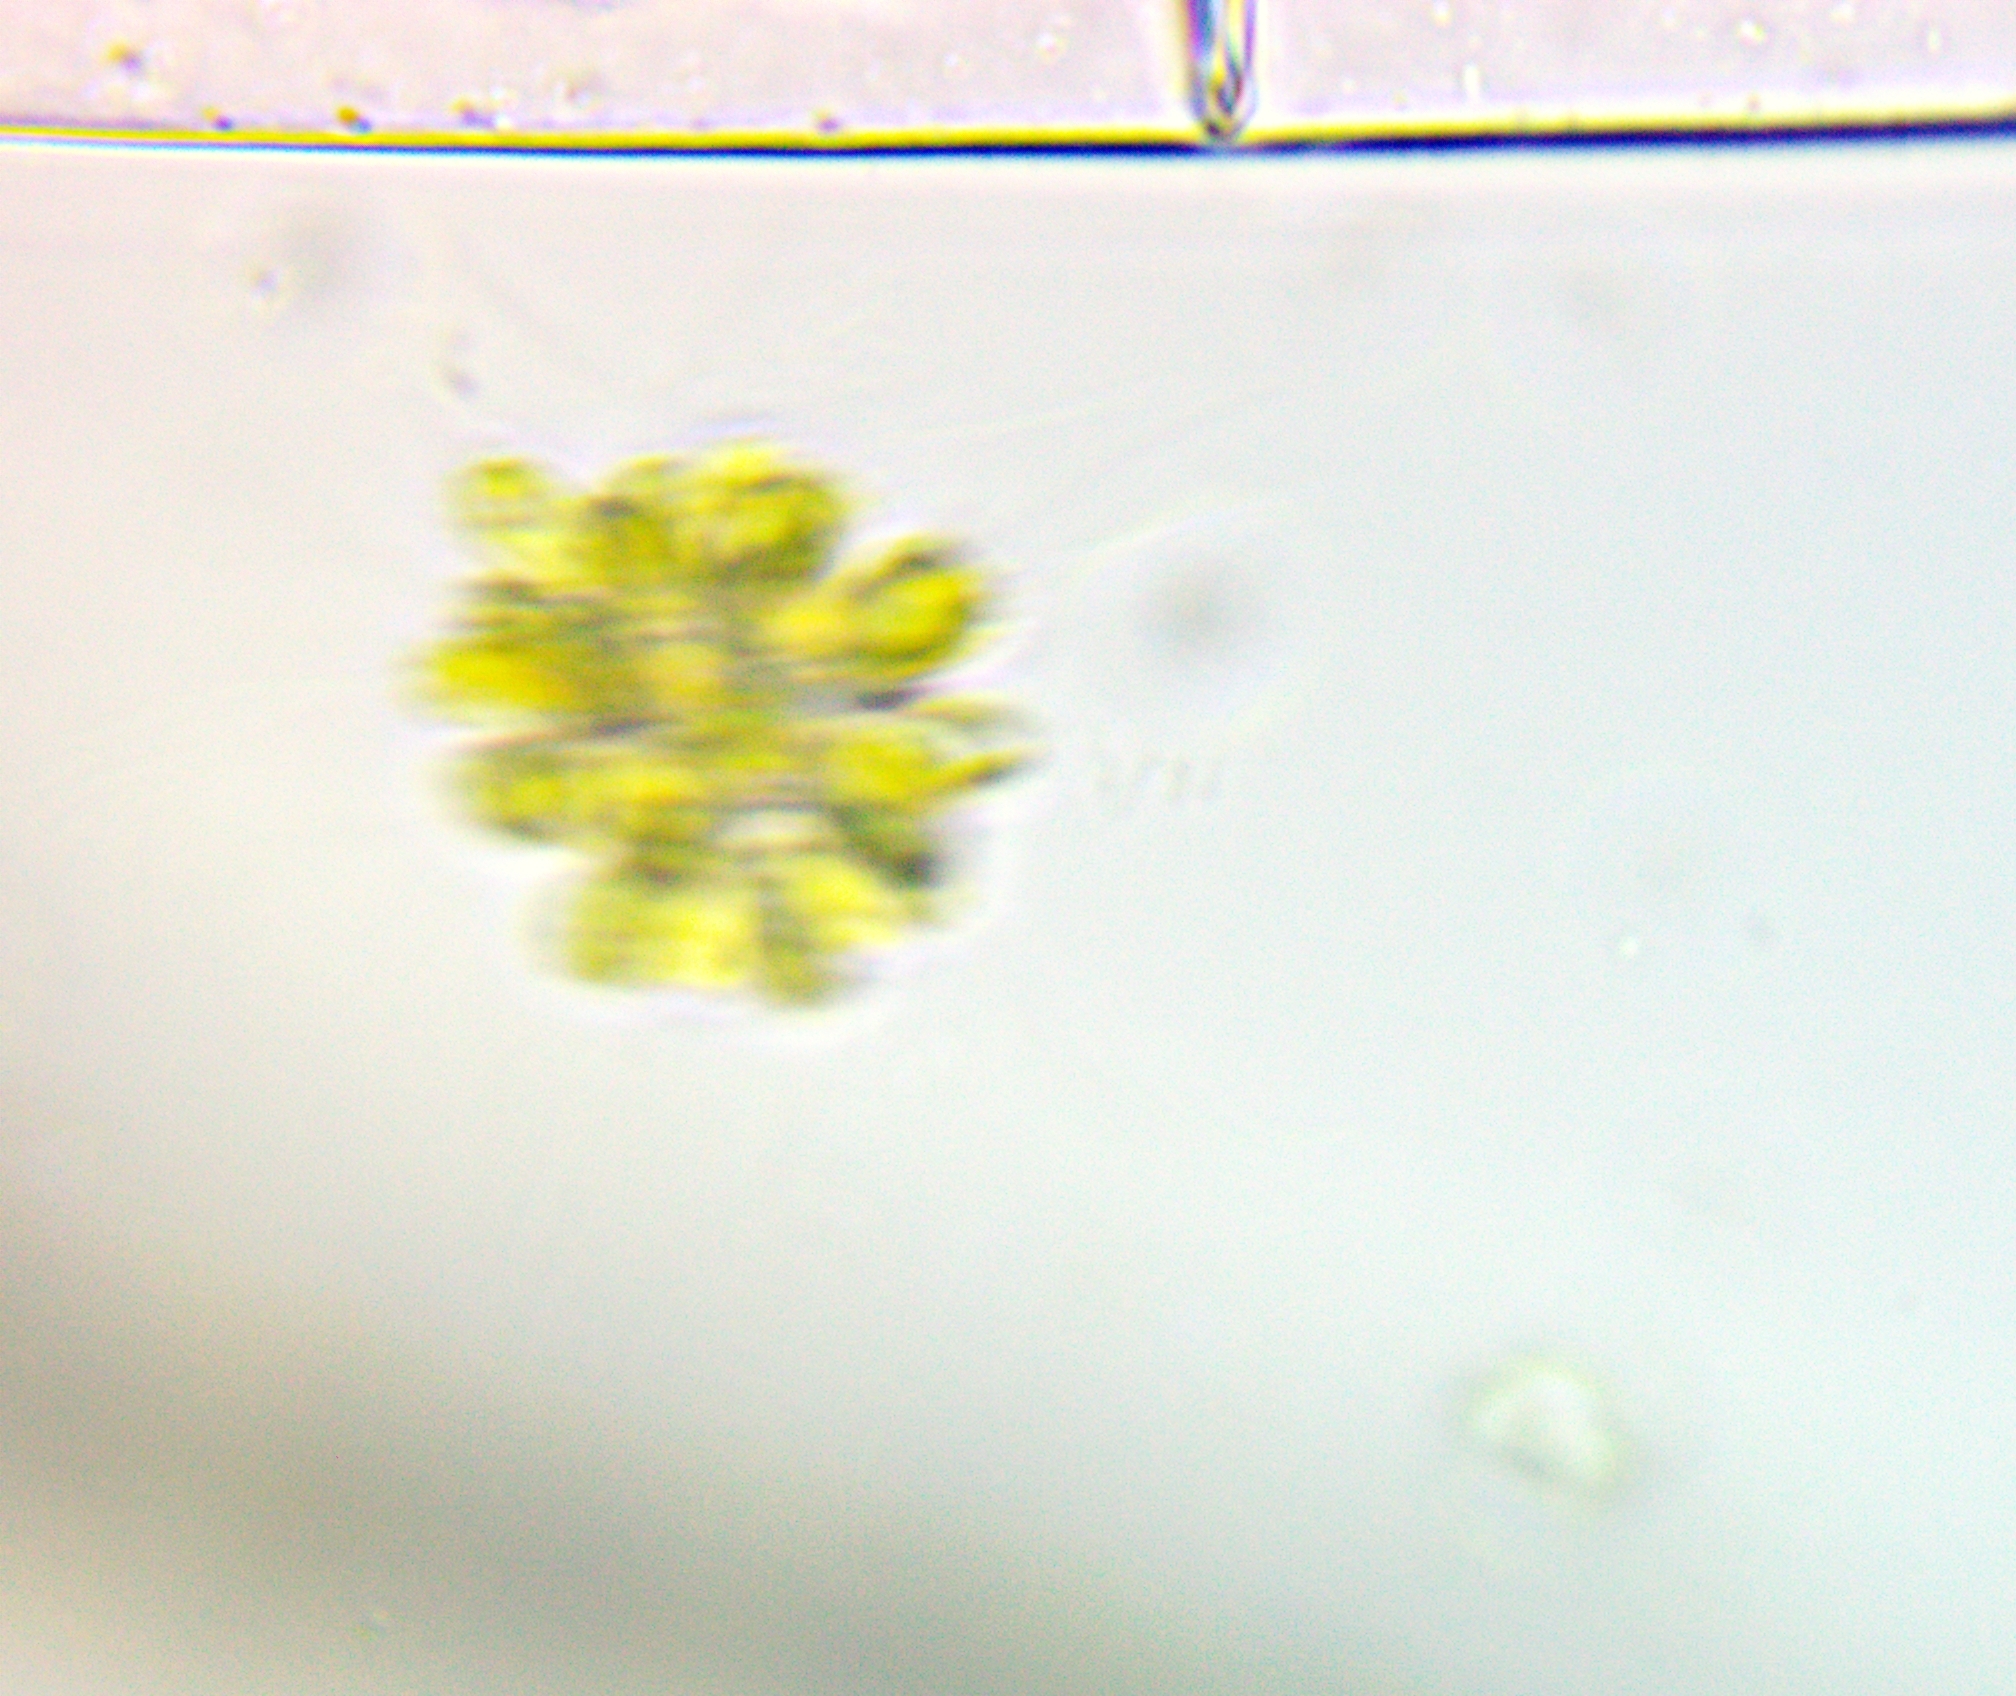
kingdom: Chromista
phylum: Ochrophyta
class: Synurophyceae
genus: Synura
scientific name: Synura
